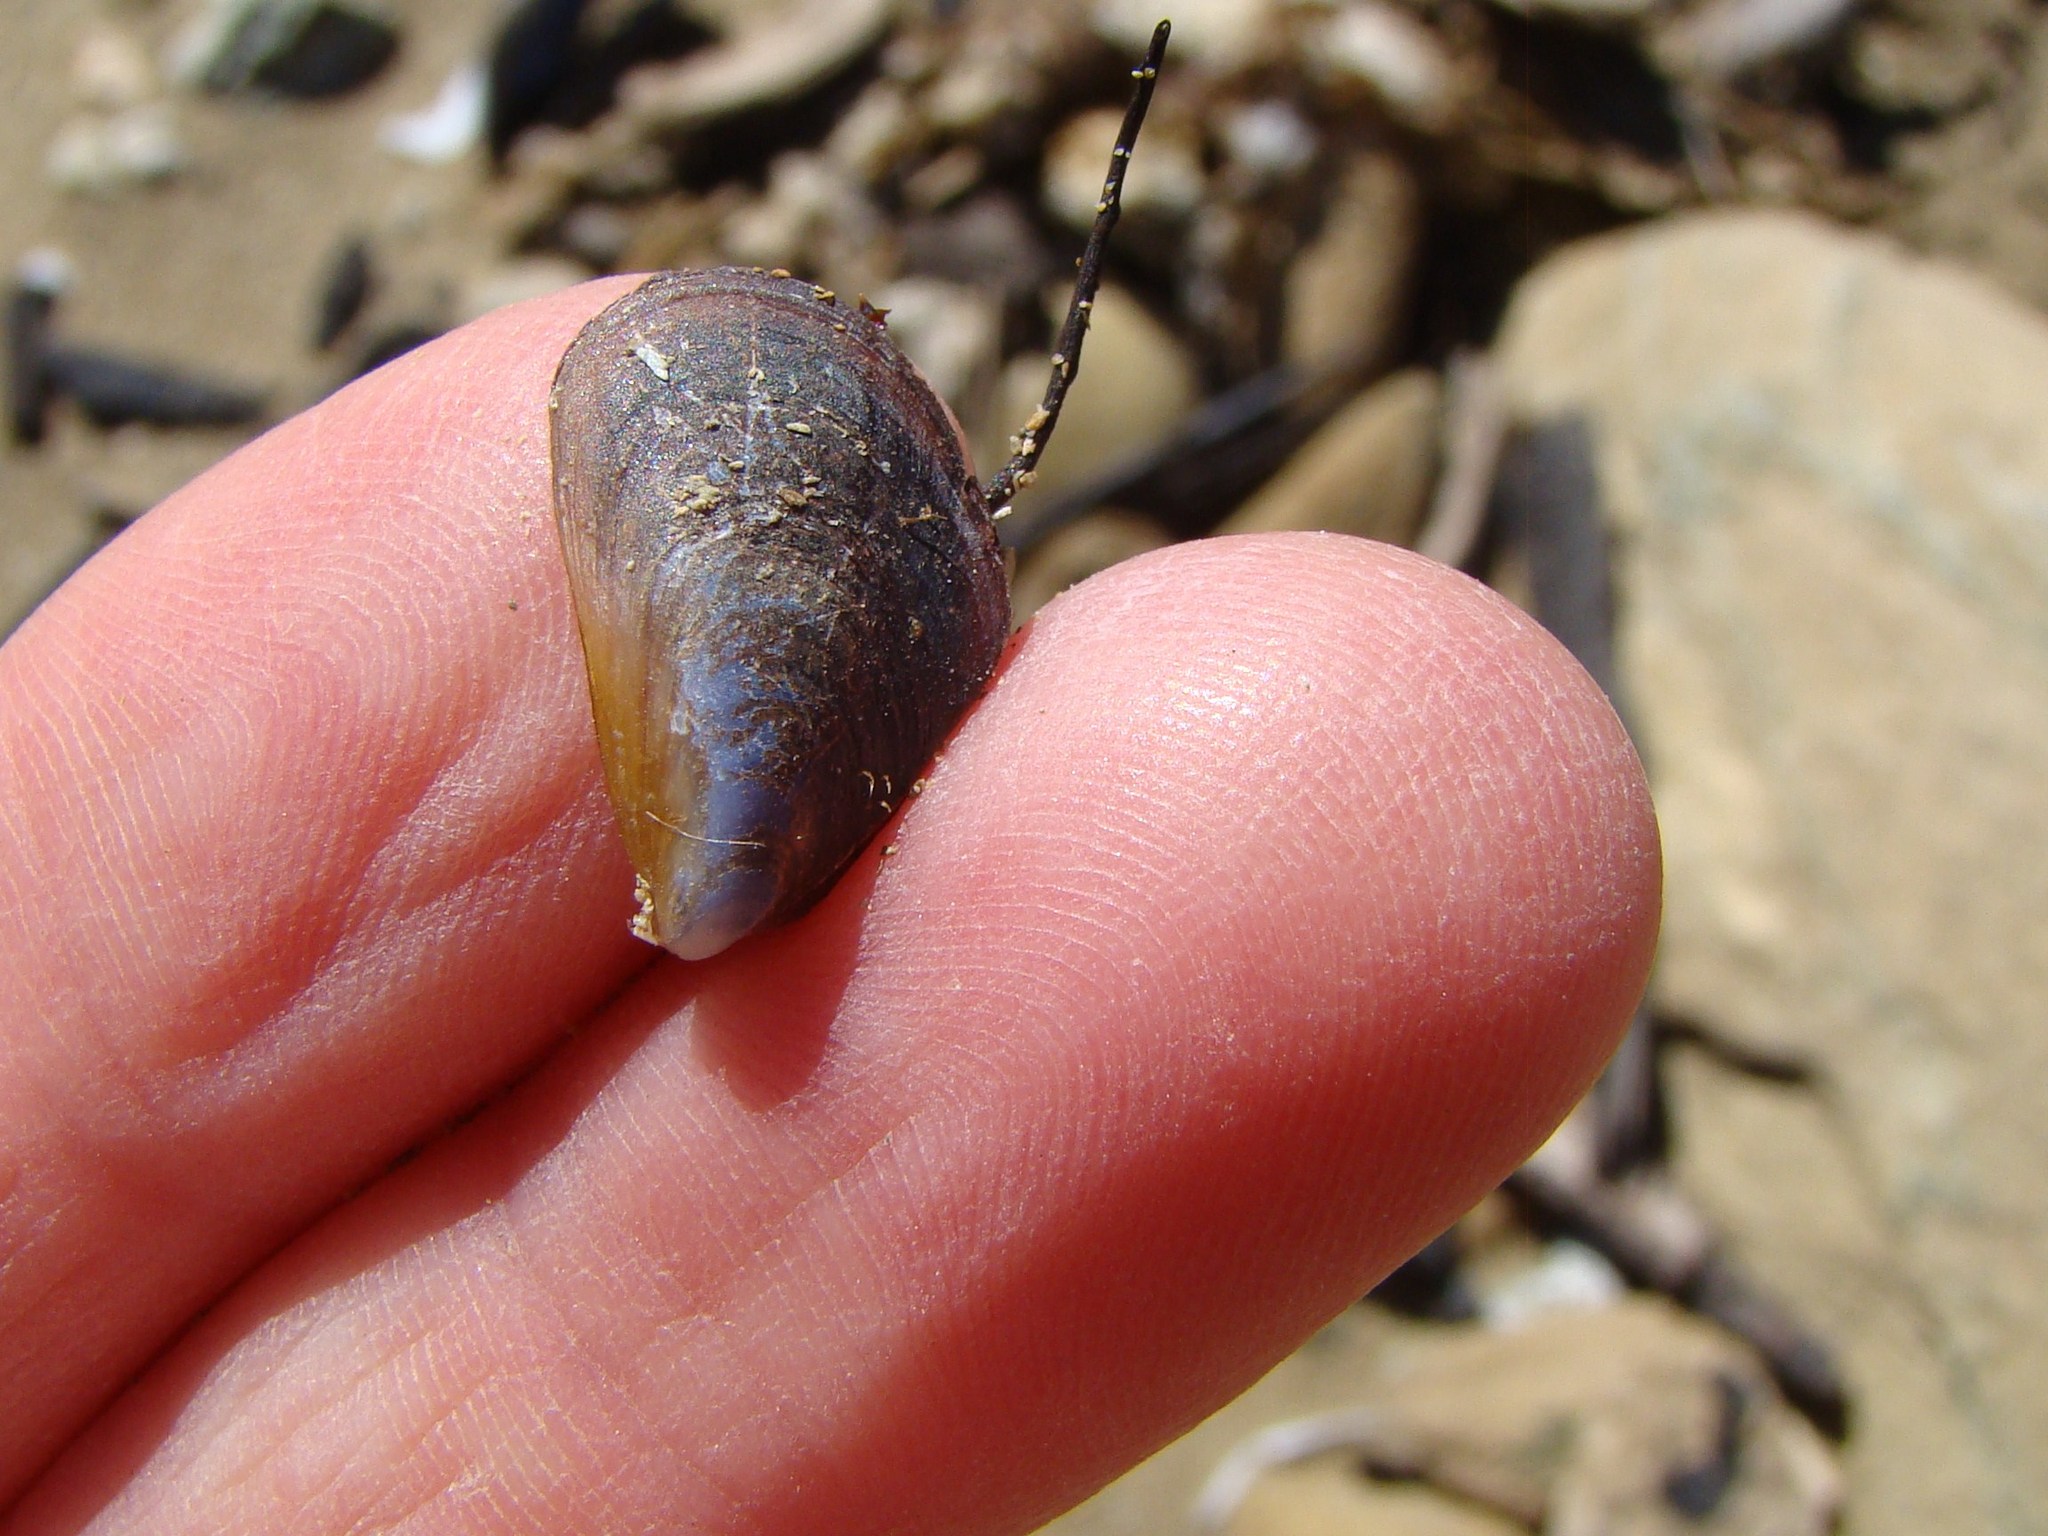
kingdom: Animalia
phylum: Mollusca
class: Bivalvia
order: Mytilida
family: Mytilidae
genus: Mytilus
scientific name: Mytilus planulatus
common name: Australian mussel
